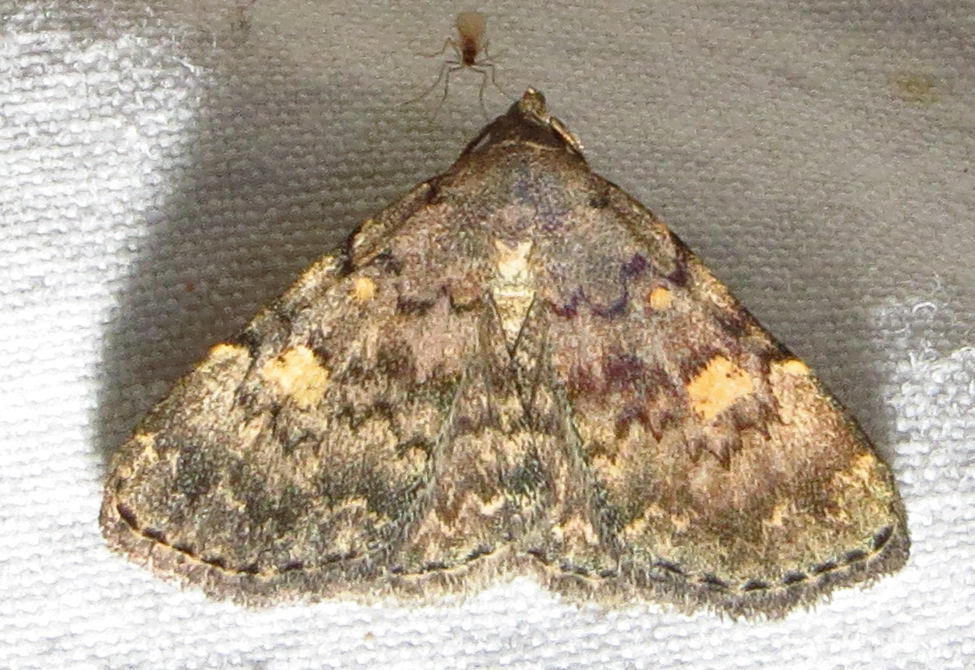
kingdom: Animalia
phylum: Arthropoda
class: Insecta
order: Lepidoptera
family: Erebidae
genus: Idia
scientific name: Idia aemula
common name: Common idia moth
